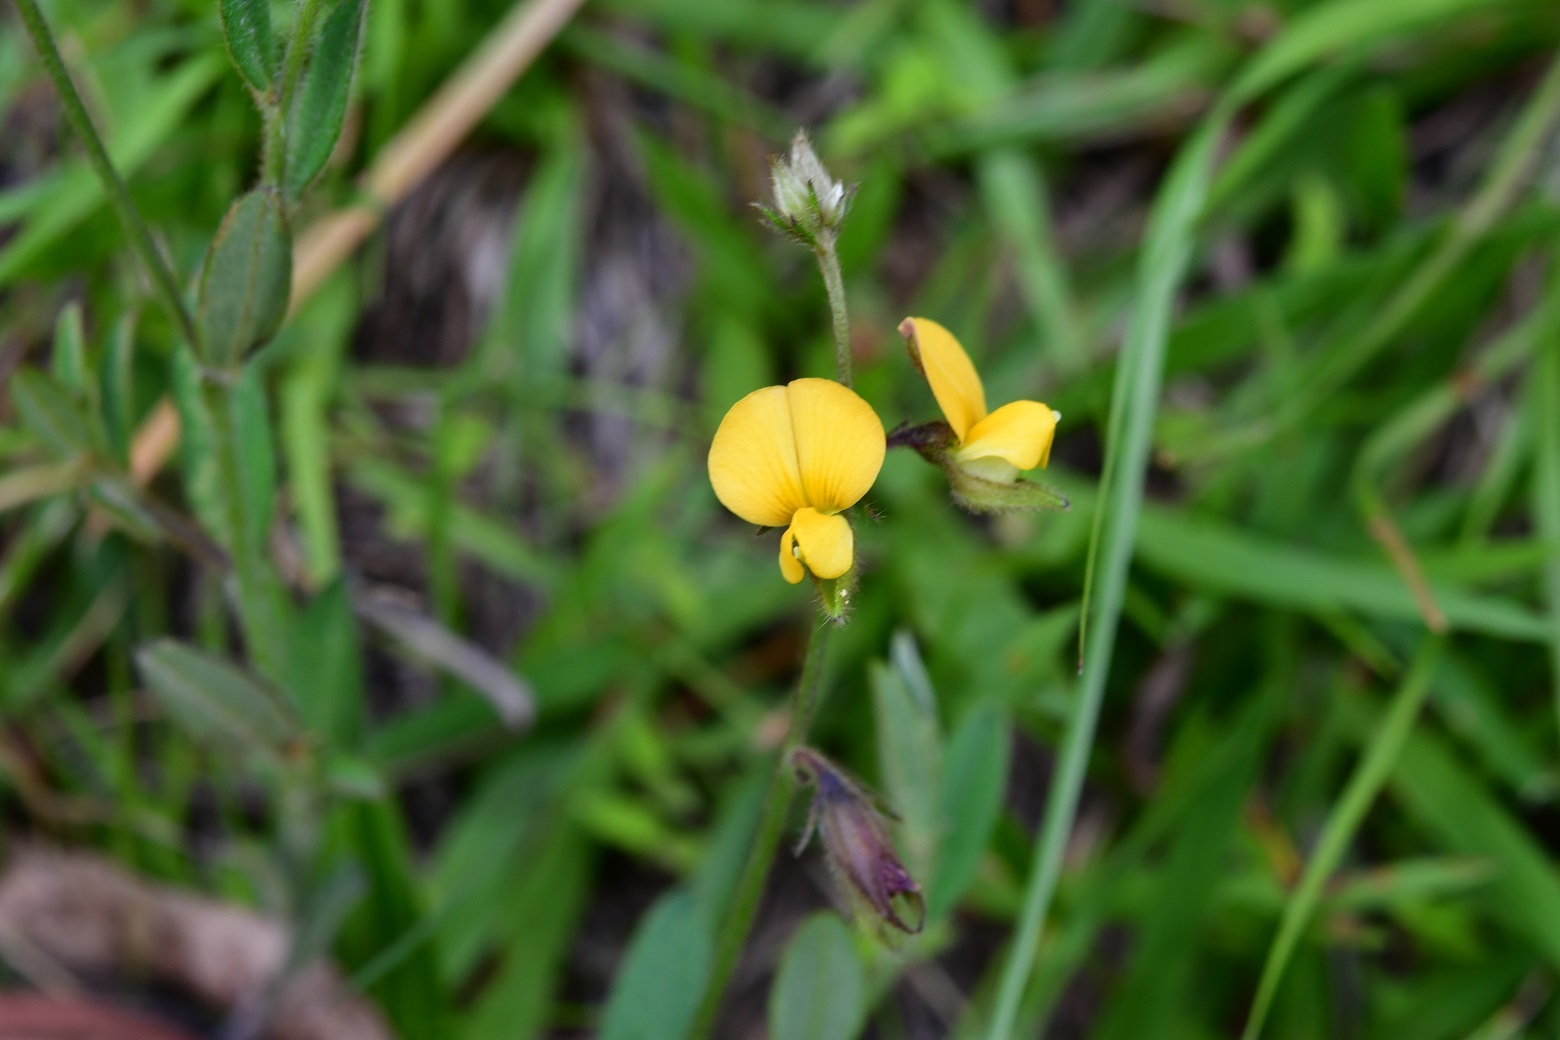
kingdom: Plantae
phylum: Tracheophyta
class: Magnoliopsida
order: Fabales
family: Fabaceae
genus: Crotalaria
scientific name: Crotalaria bupleurifolia
